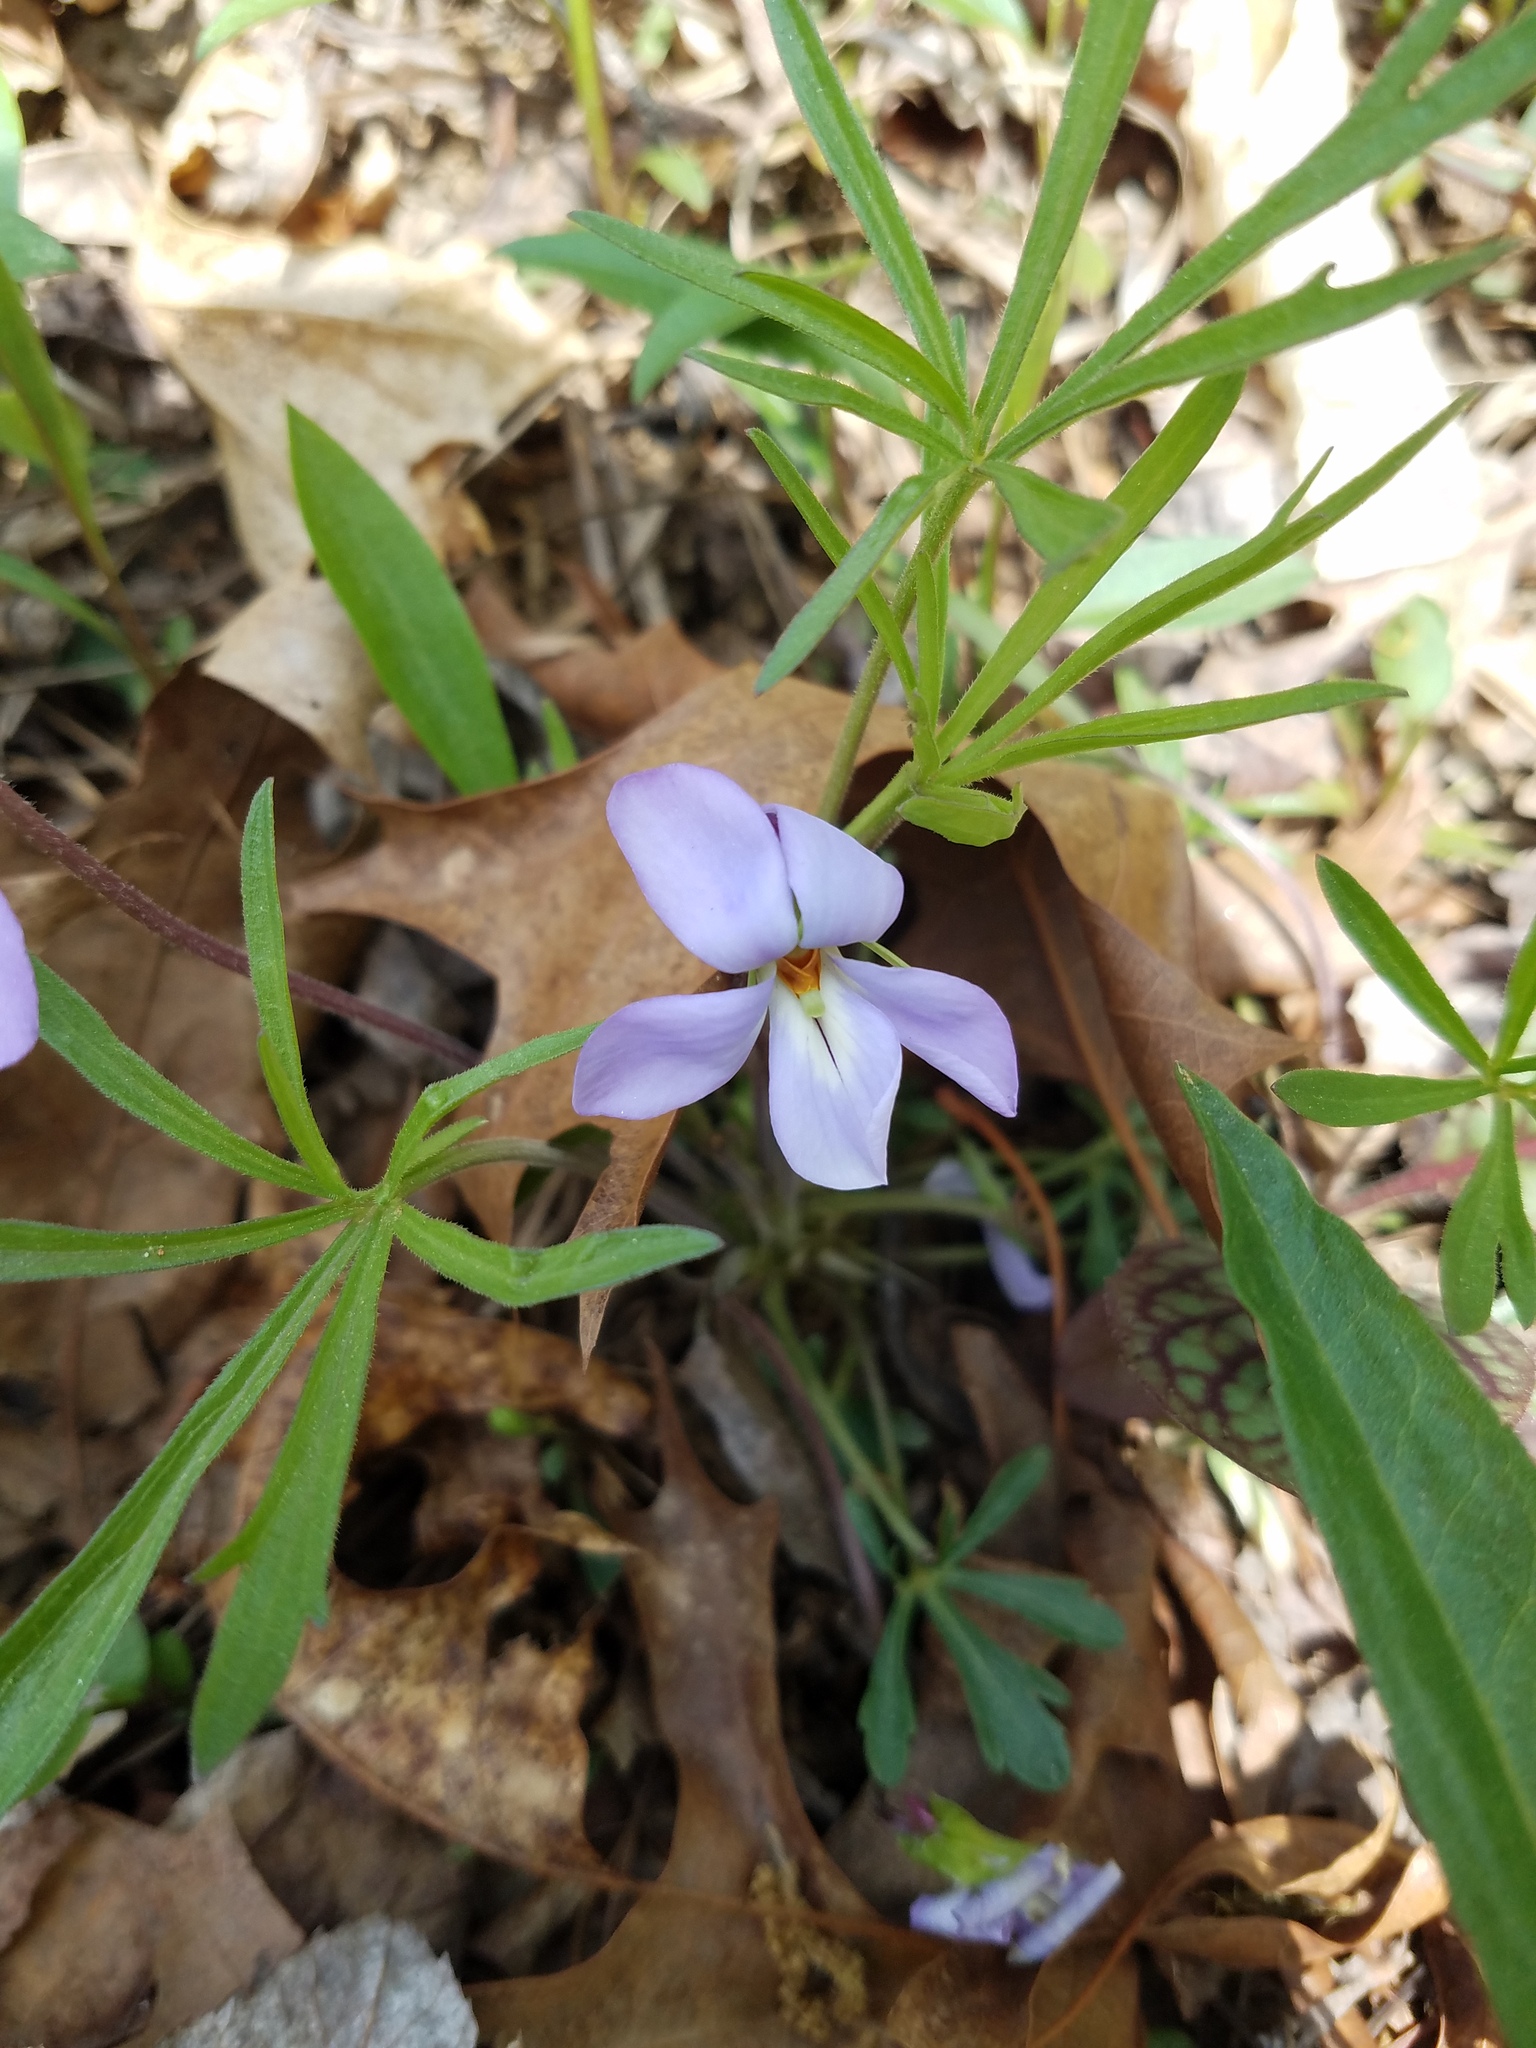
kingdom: Plantae
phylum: Tracheophyta
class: Magnoliopsida
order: Malpighiales
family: Violaceae
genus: Viola
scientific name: Viola pedata
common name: Pansy violet
